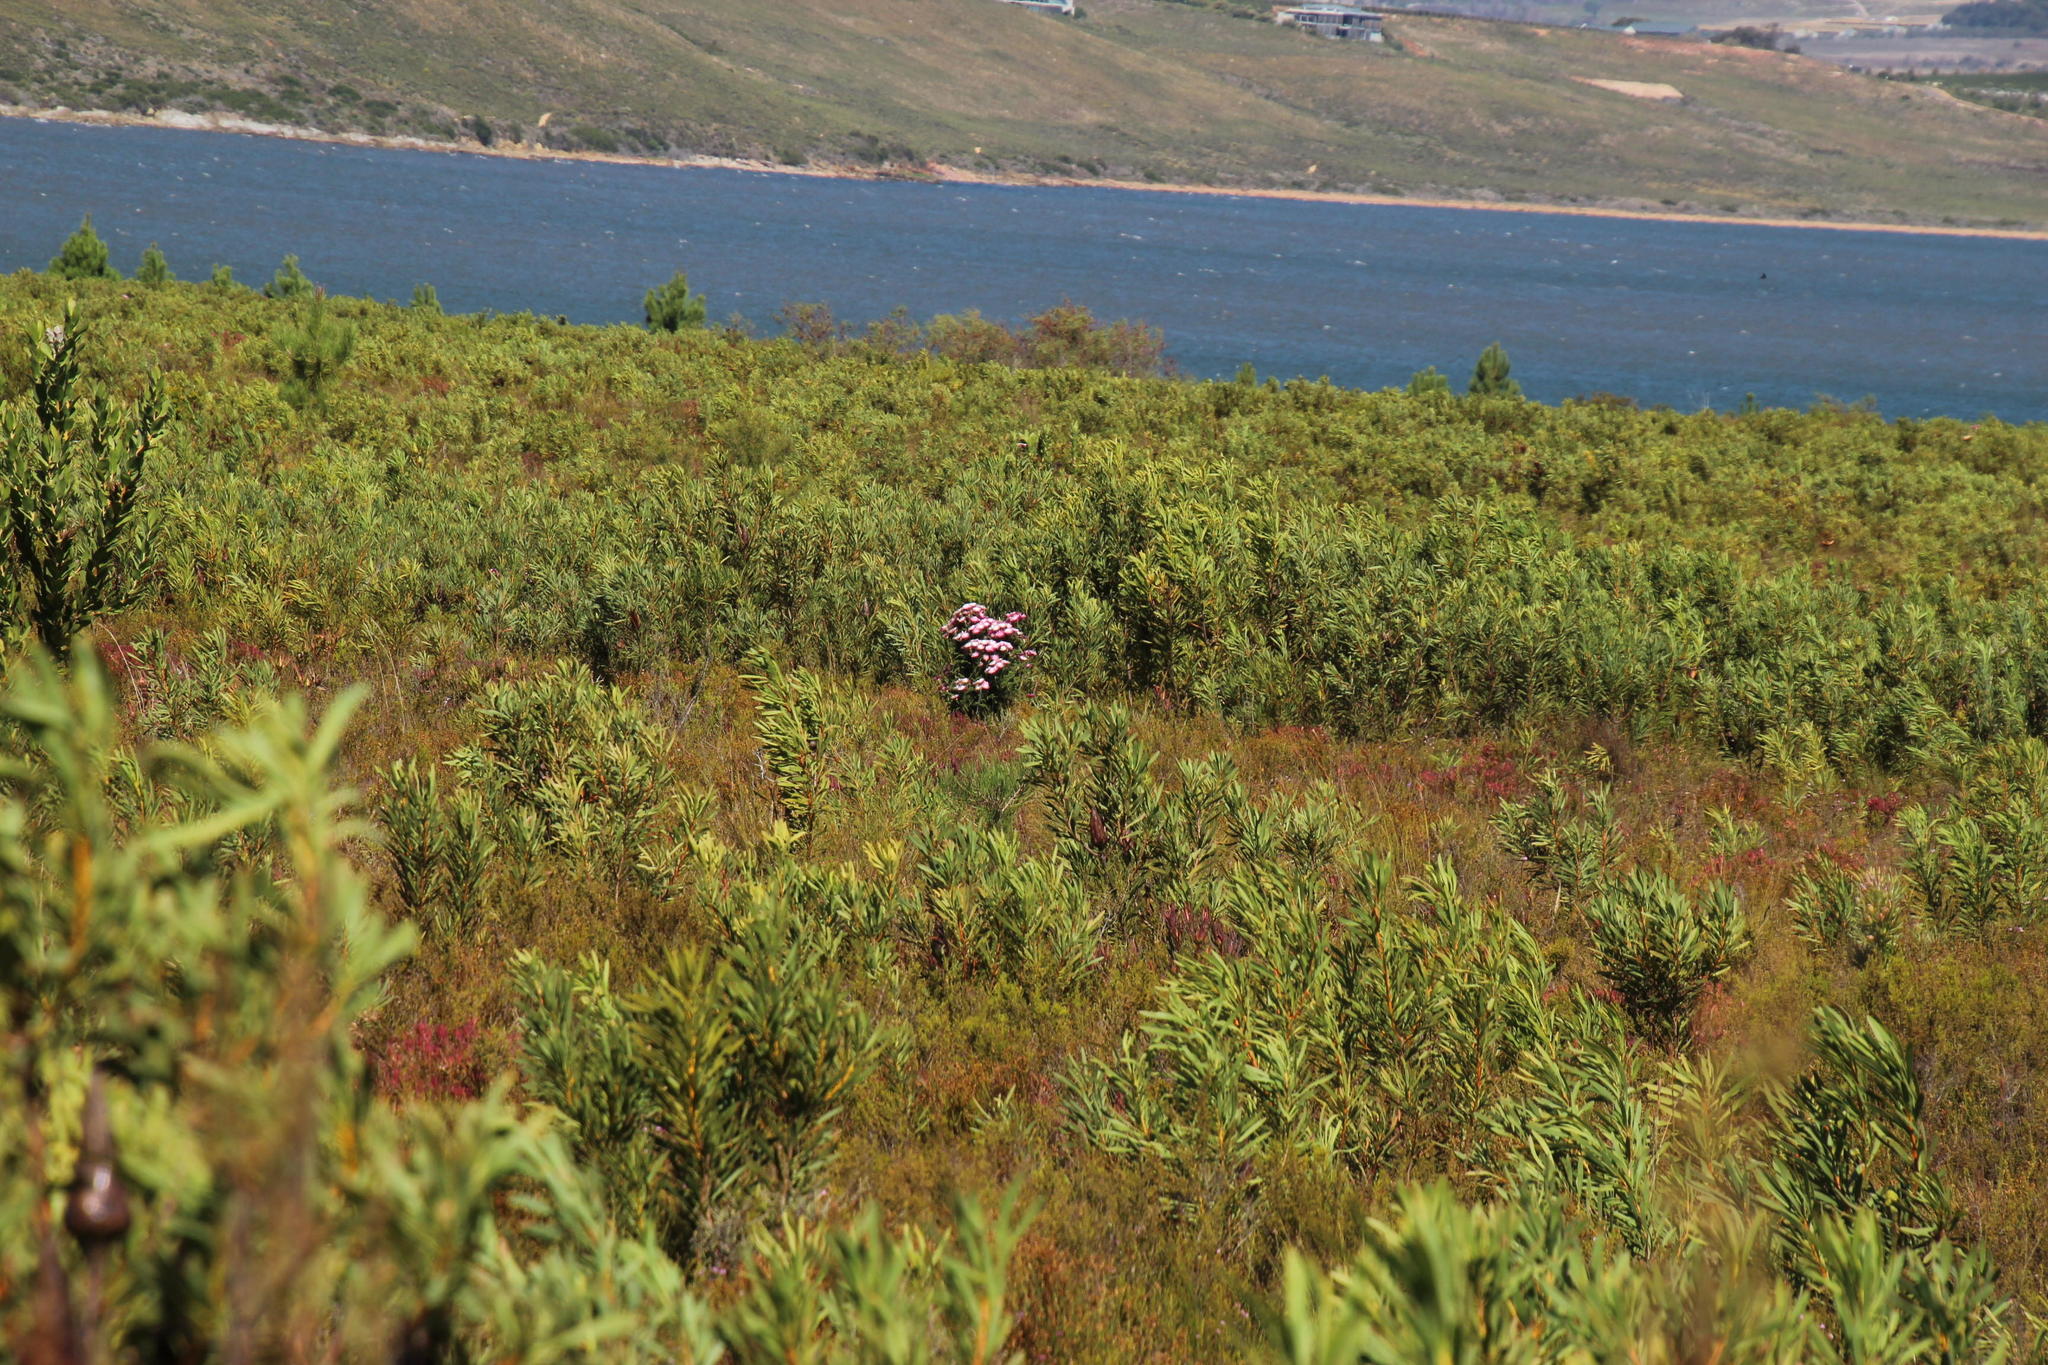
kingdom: Plantae
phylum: Tracheophyta
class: Magnoliopsida
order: Asterales
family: Asteraceae
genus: Phaenocoma
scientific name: Phaenocoma prolifera
